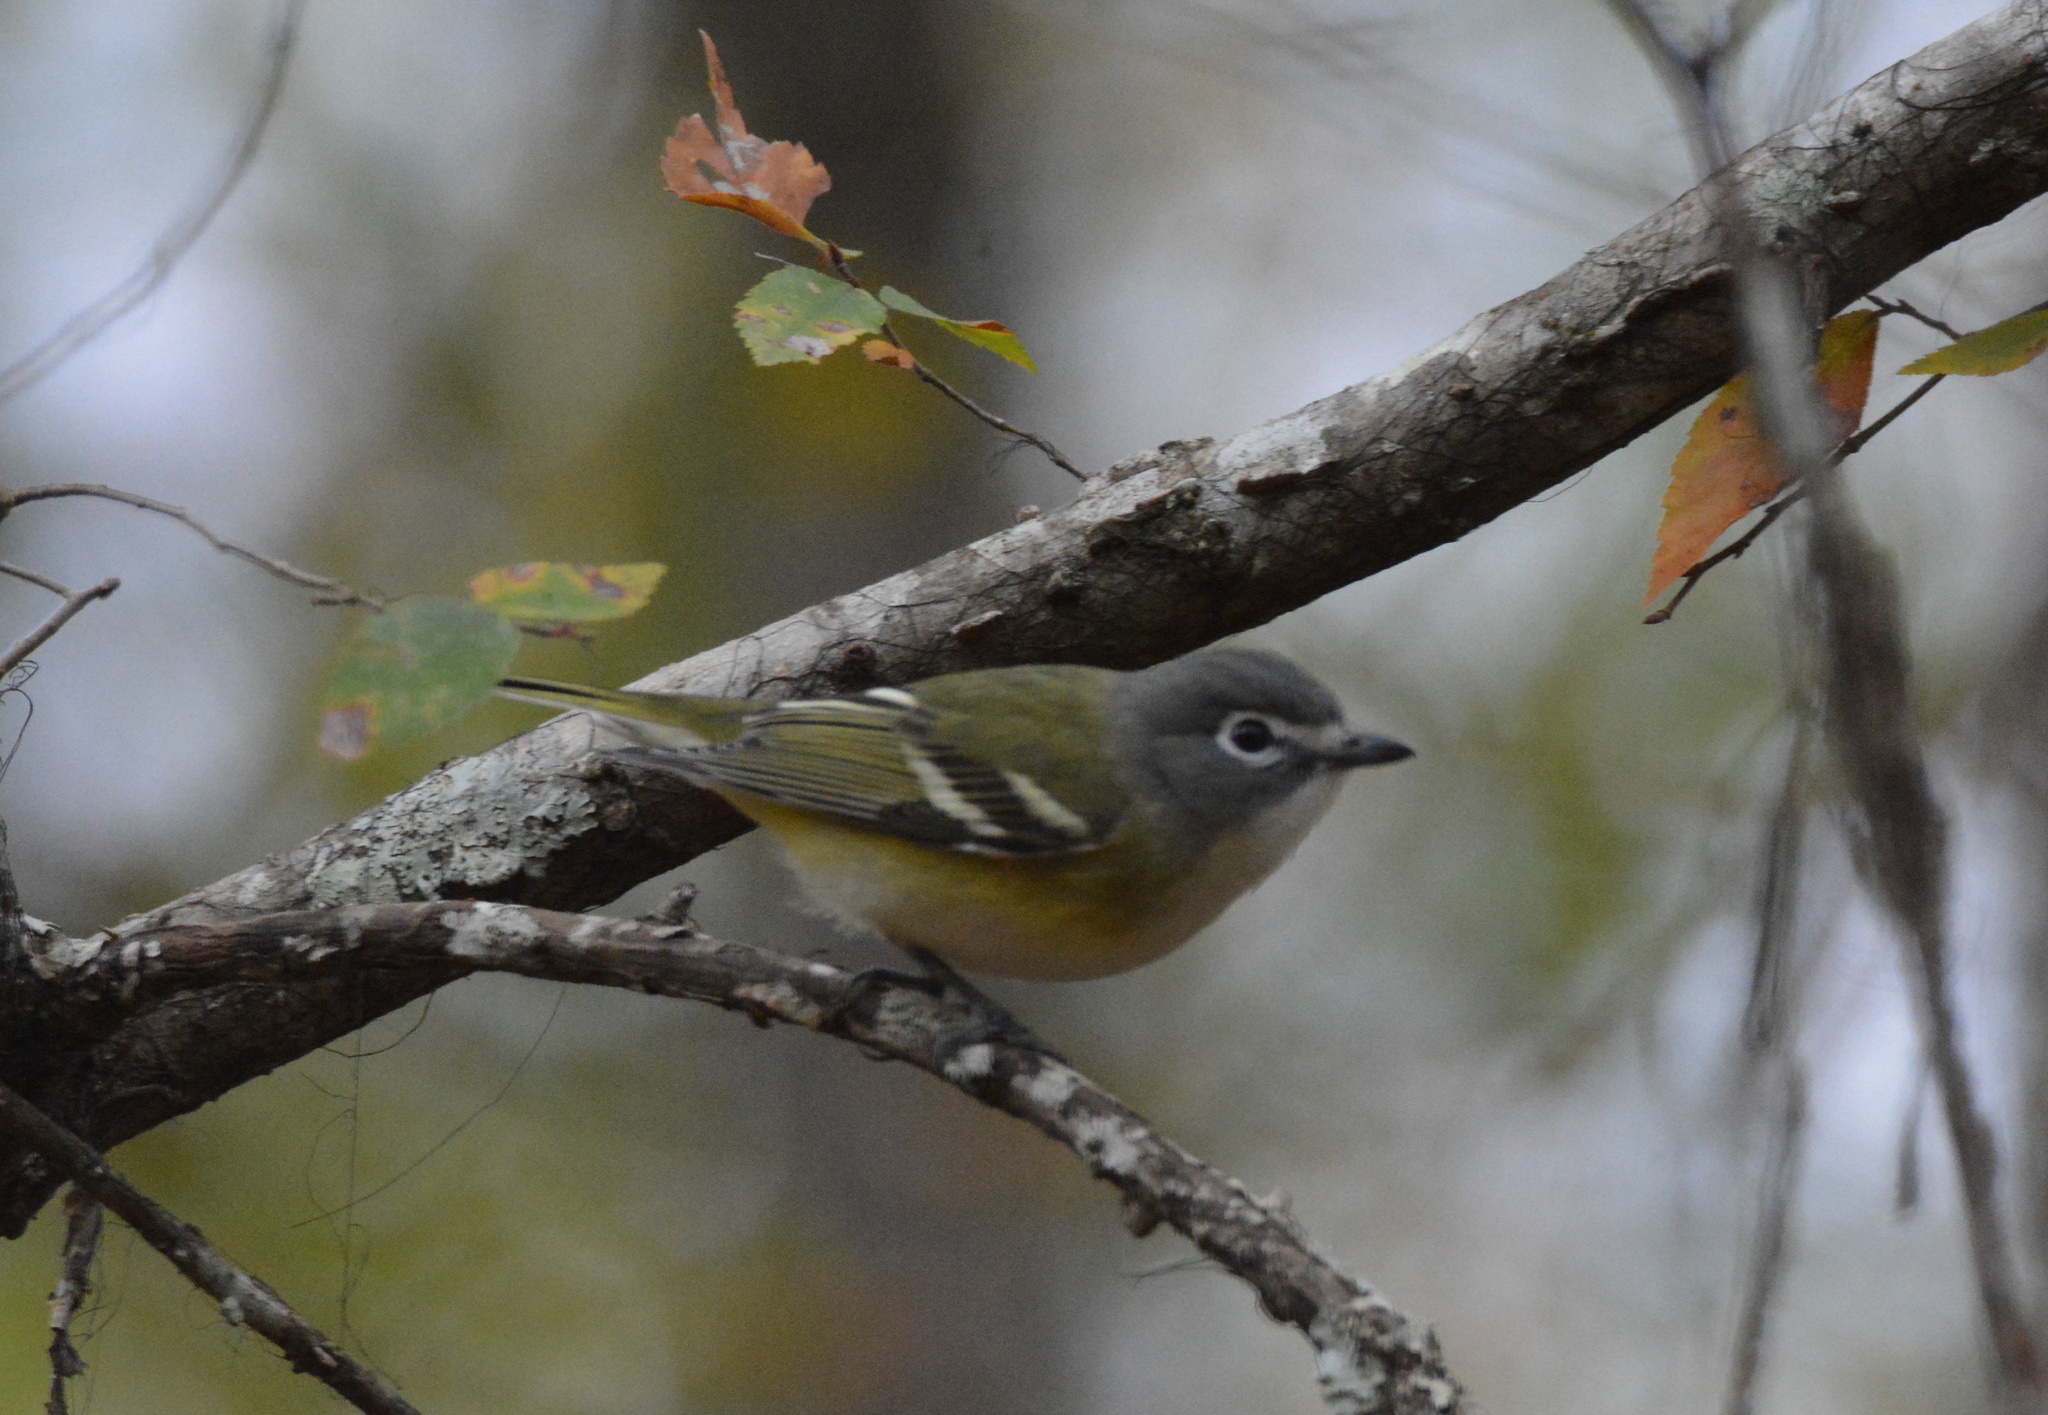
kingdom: Animalia
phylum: Chordata
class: Aves
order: Passeriformes
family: Vireonidae
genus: Vireo
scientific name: Vireo solitarius
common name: Blue-headed vireo
